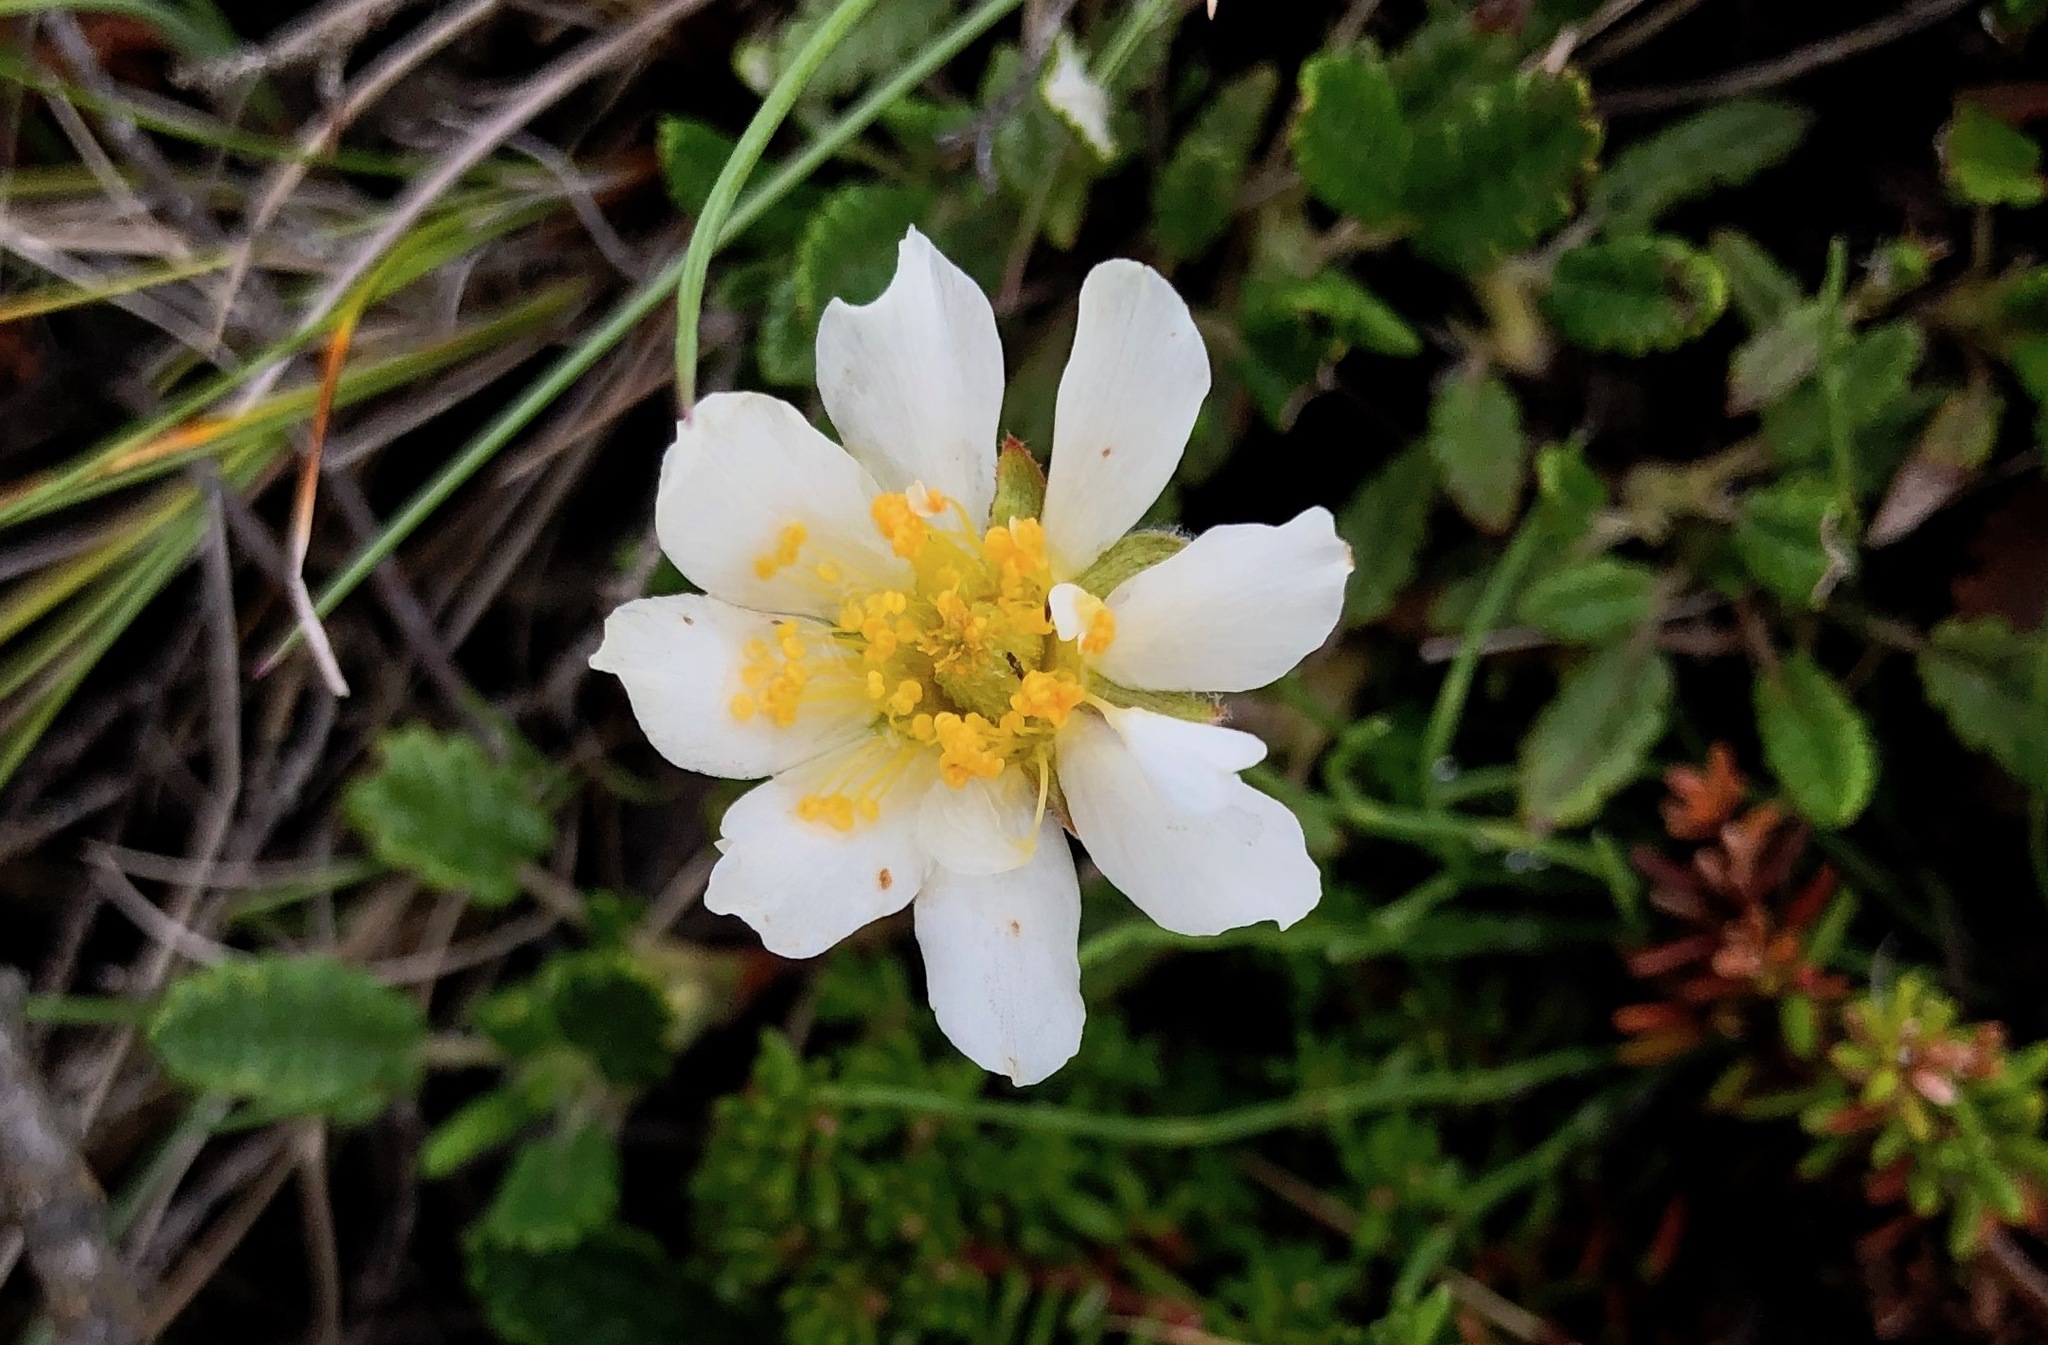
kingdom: Plantae
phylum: Tracheophyta
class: Magnoliopsida
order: Rosales
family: Rosaceae
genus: Dryas
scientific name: Dryas octopetala
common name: Eight-petal mountain-avens
